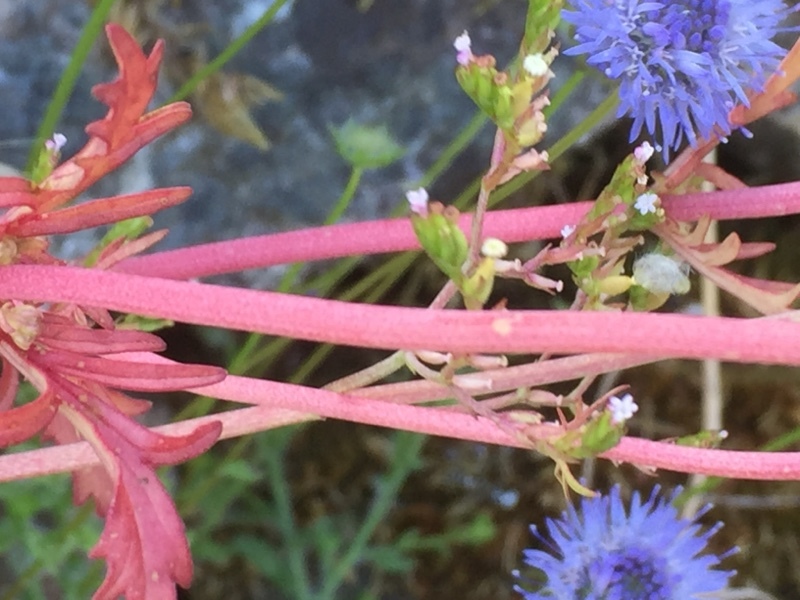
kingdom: Plantae
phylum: Tracheophyta
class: Magnoliopsida
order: Dipsacales
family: Caprifoliaceae
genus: Centranthus
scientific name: Centranthus calcitrapae
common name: Annual valerian
